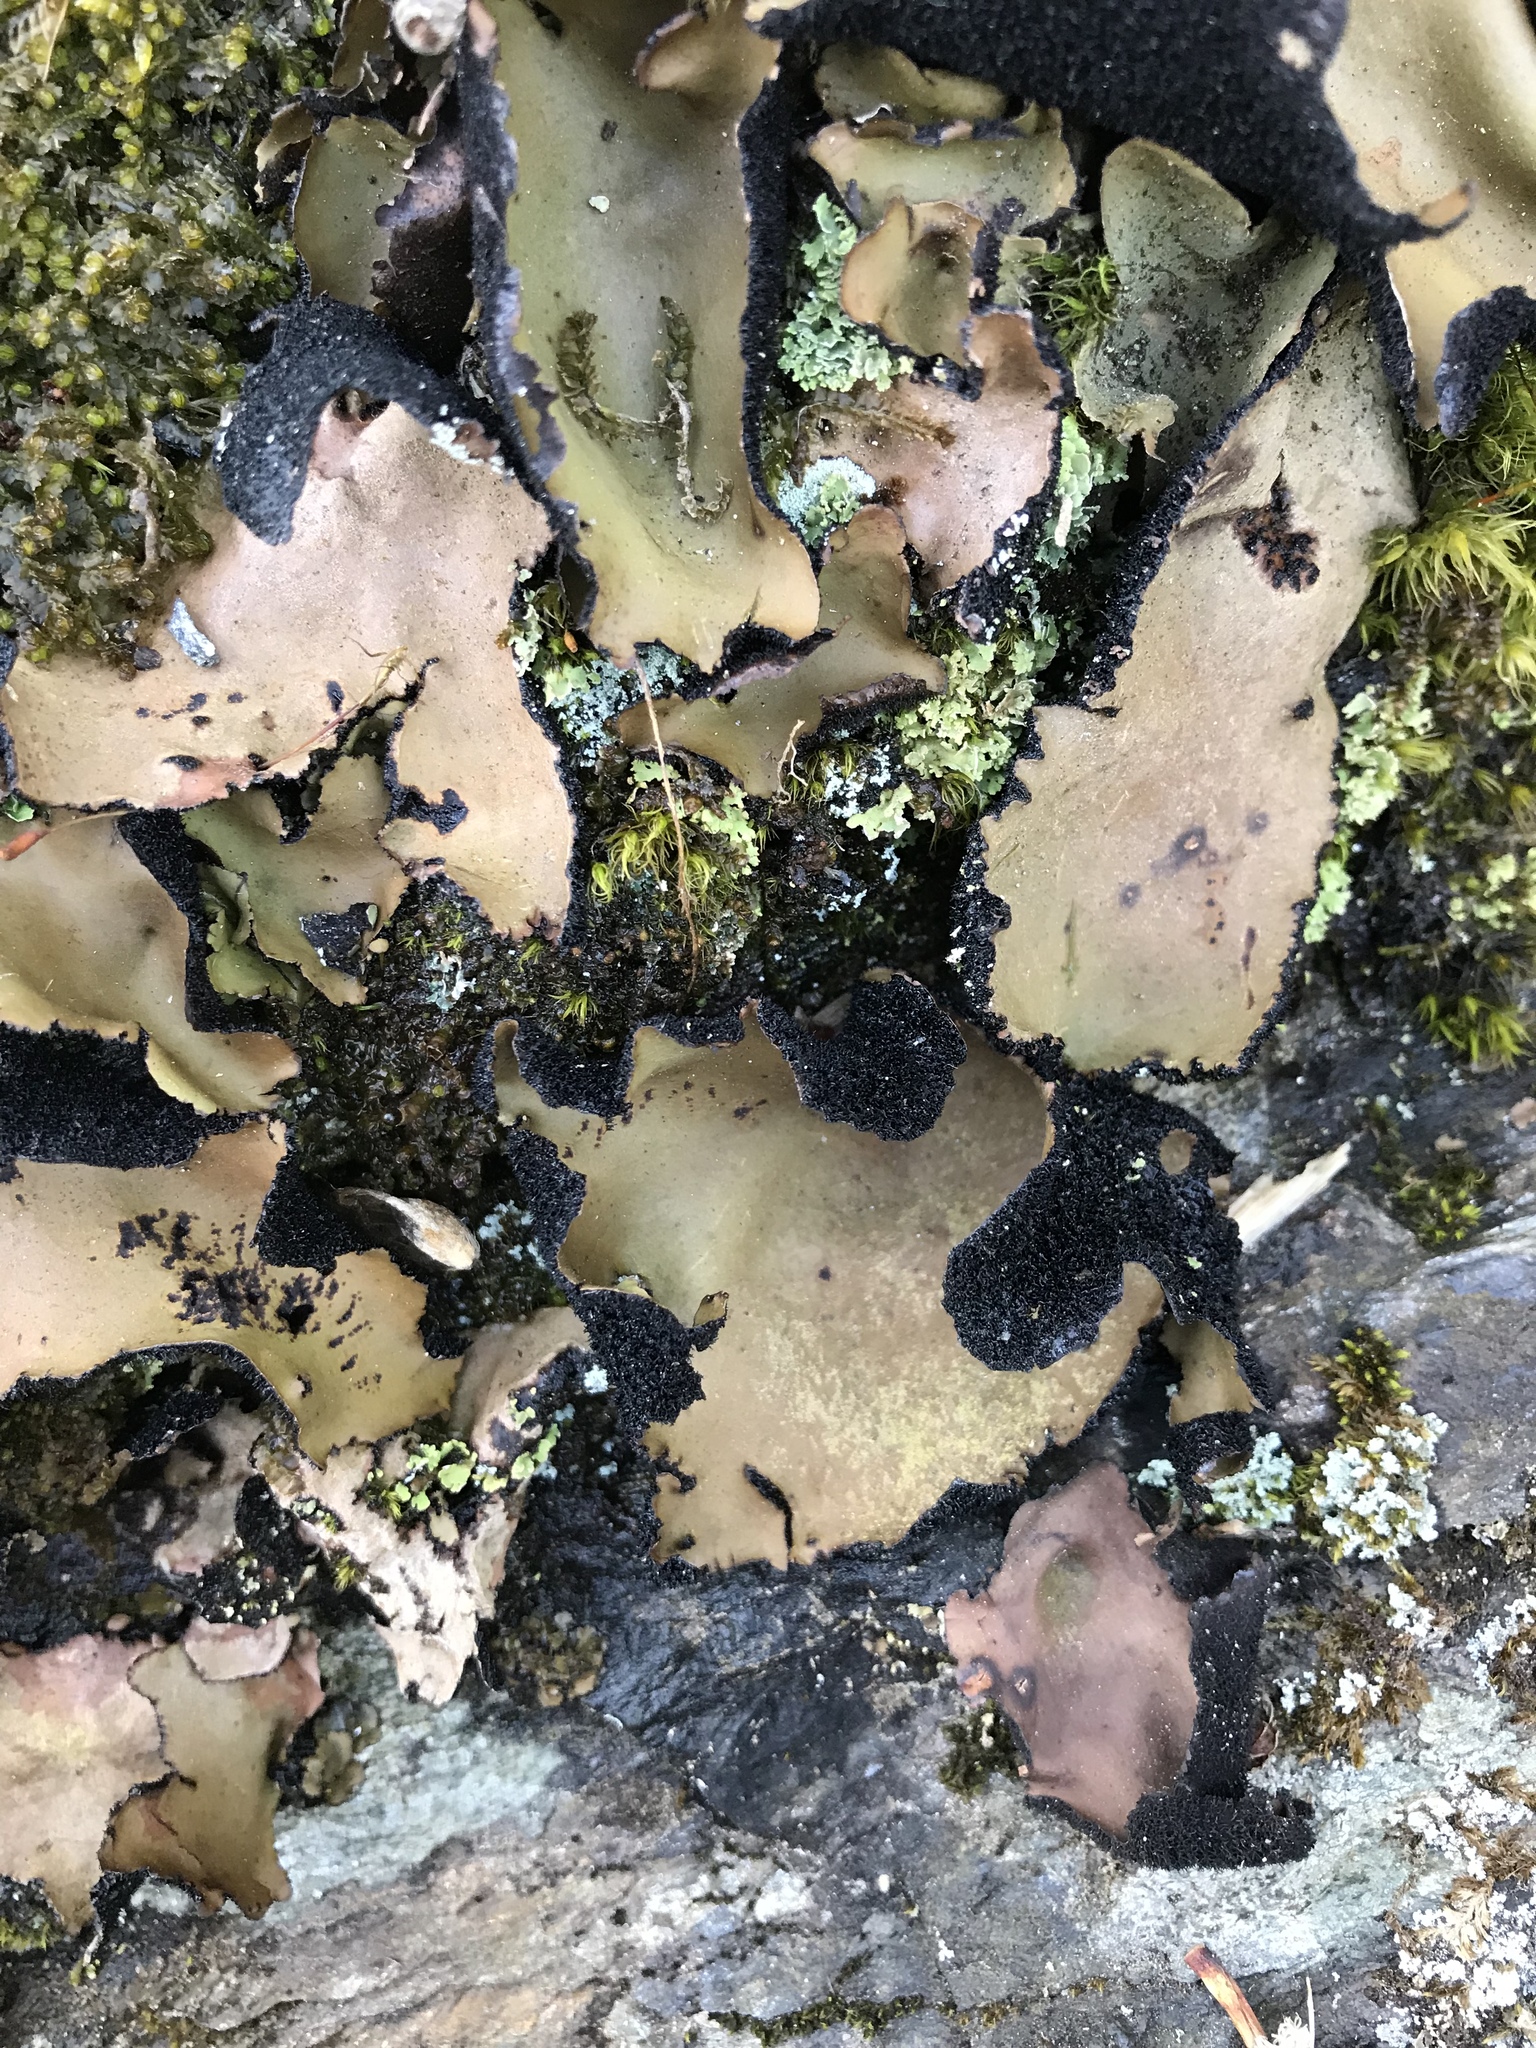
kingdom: Fungi
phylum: Ascomycota
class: Lecanoromycetes
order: Umbilicariales
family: Umbilicariaceae
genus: Umbilicaria
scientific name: Umbilicaria mammulata
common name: Smooth rock tripe
